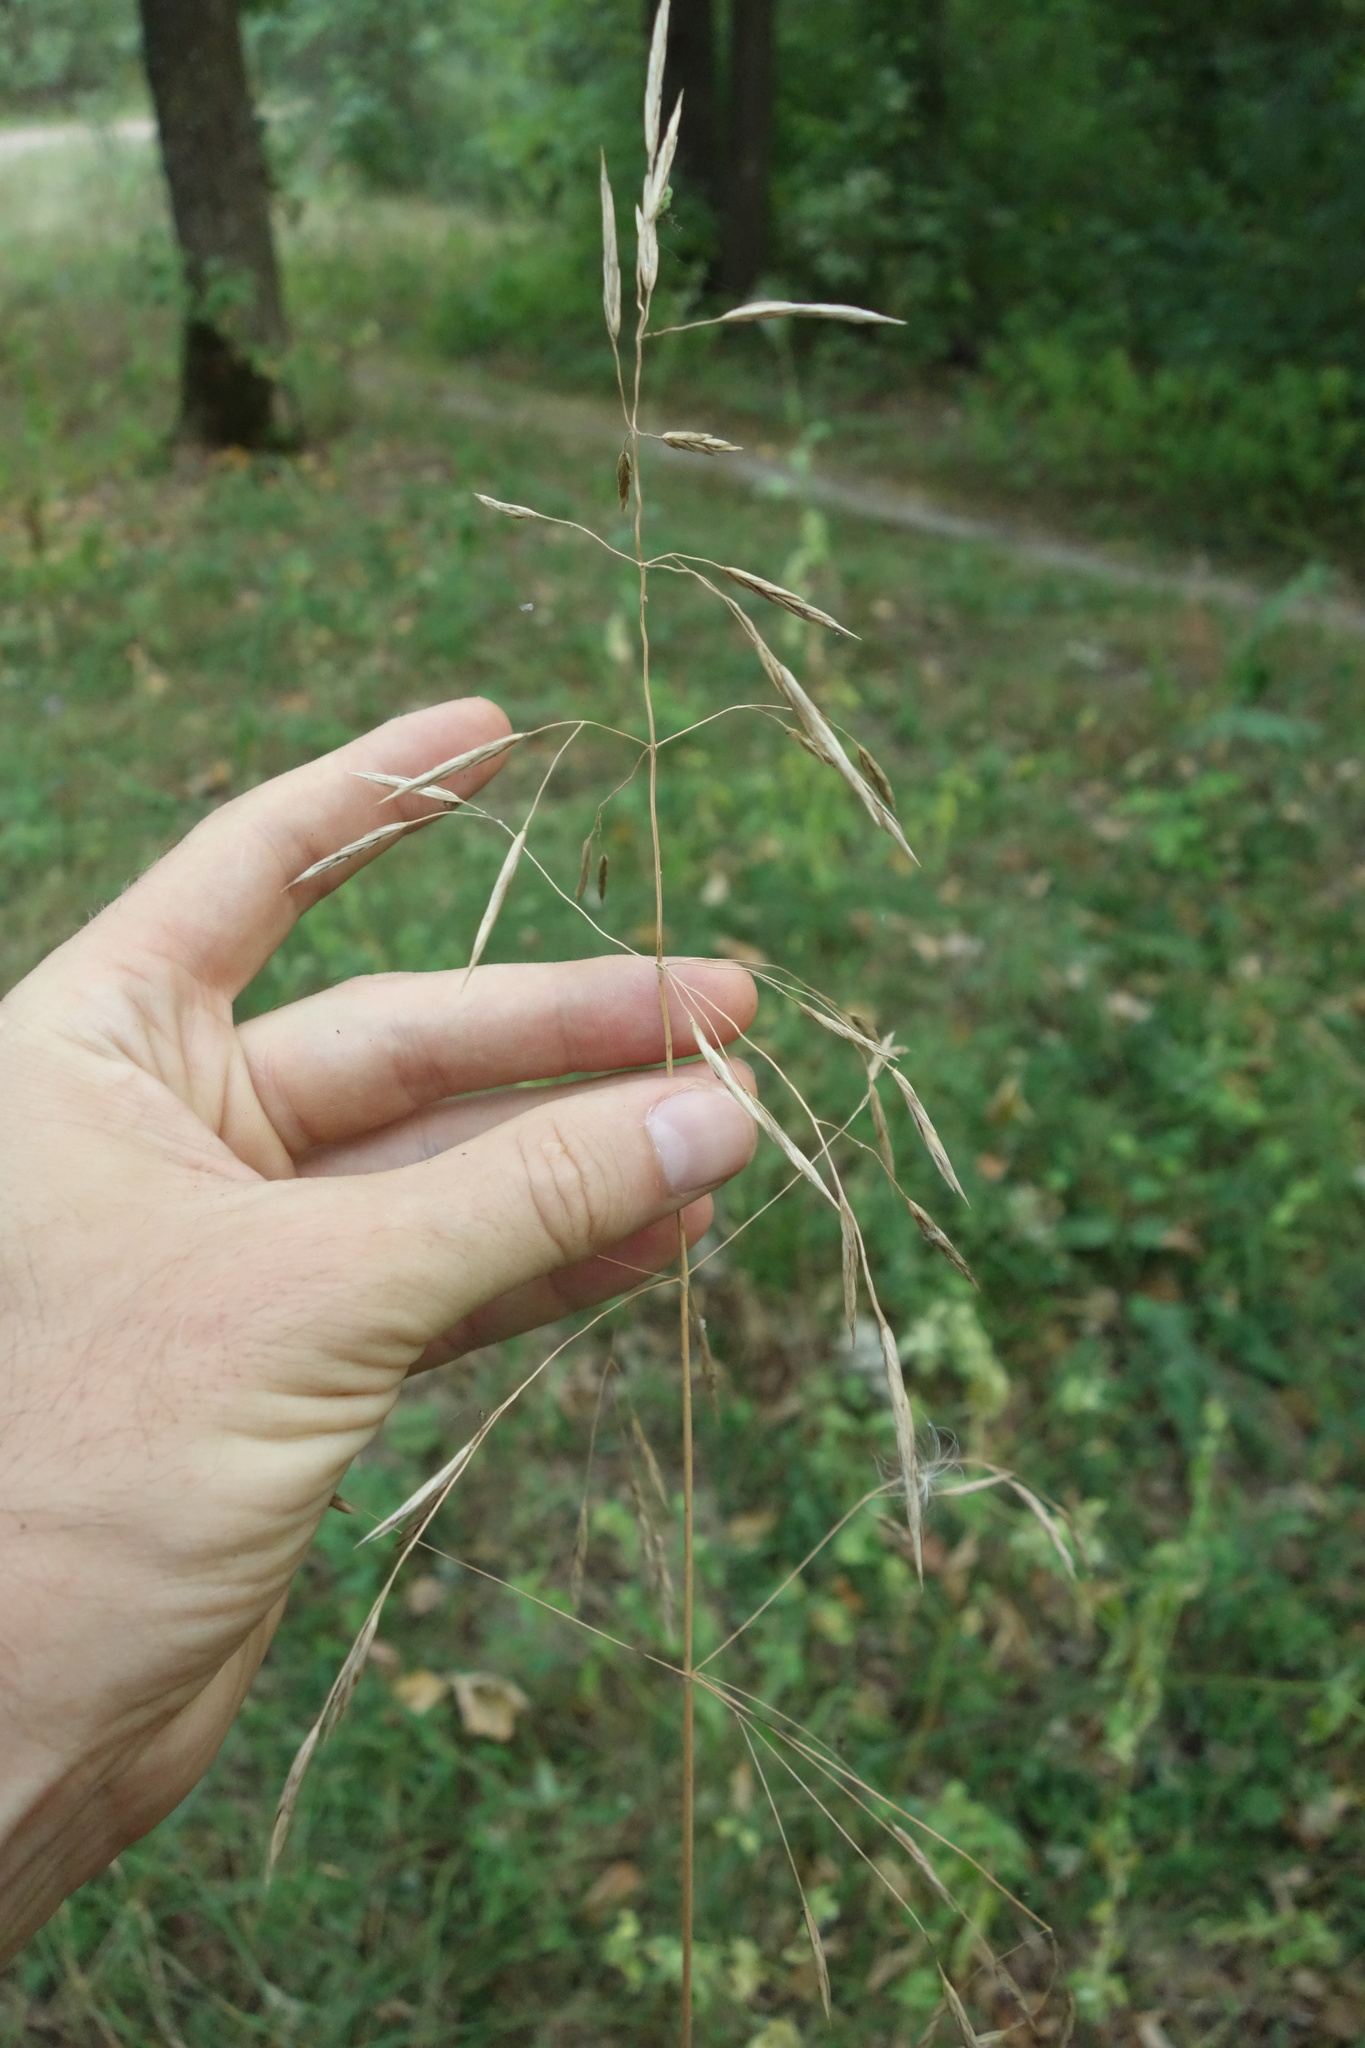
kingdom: Plantae
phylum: Tracheophyta
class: Liliopsida
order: Poales
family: Poaceae
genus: Bromus
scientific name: Bromus inermis
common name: Smooth brome
